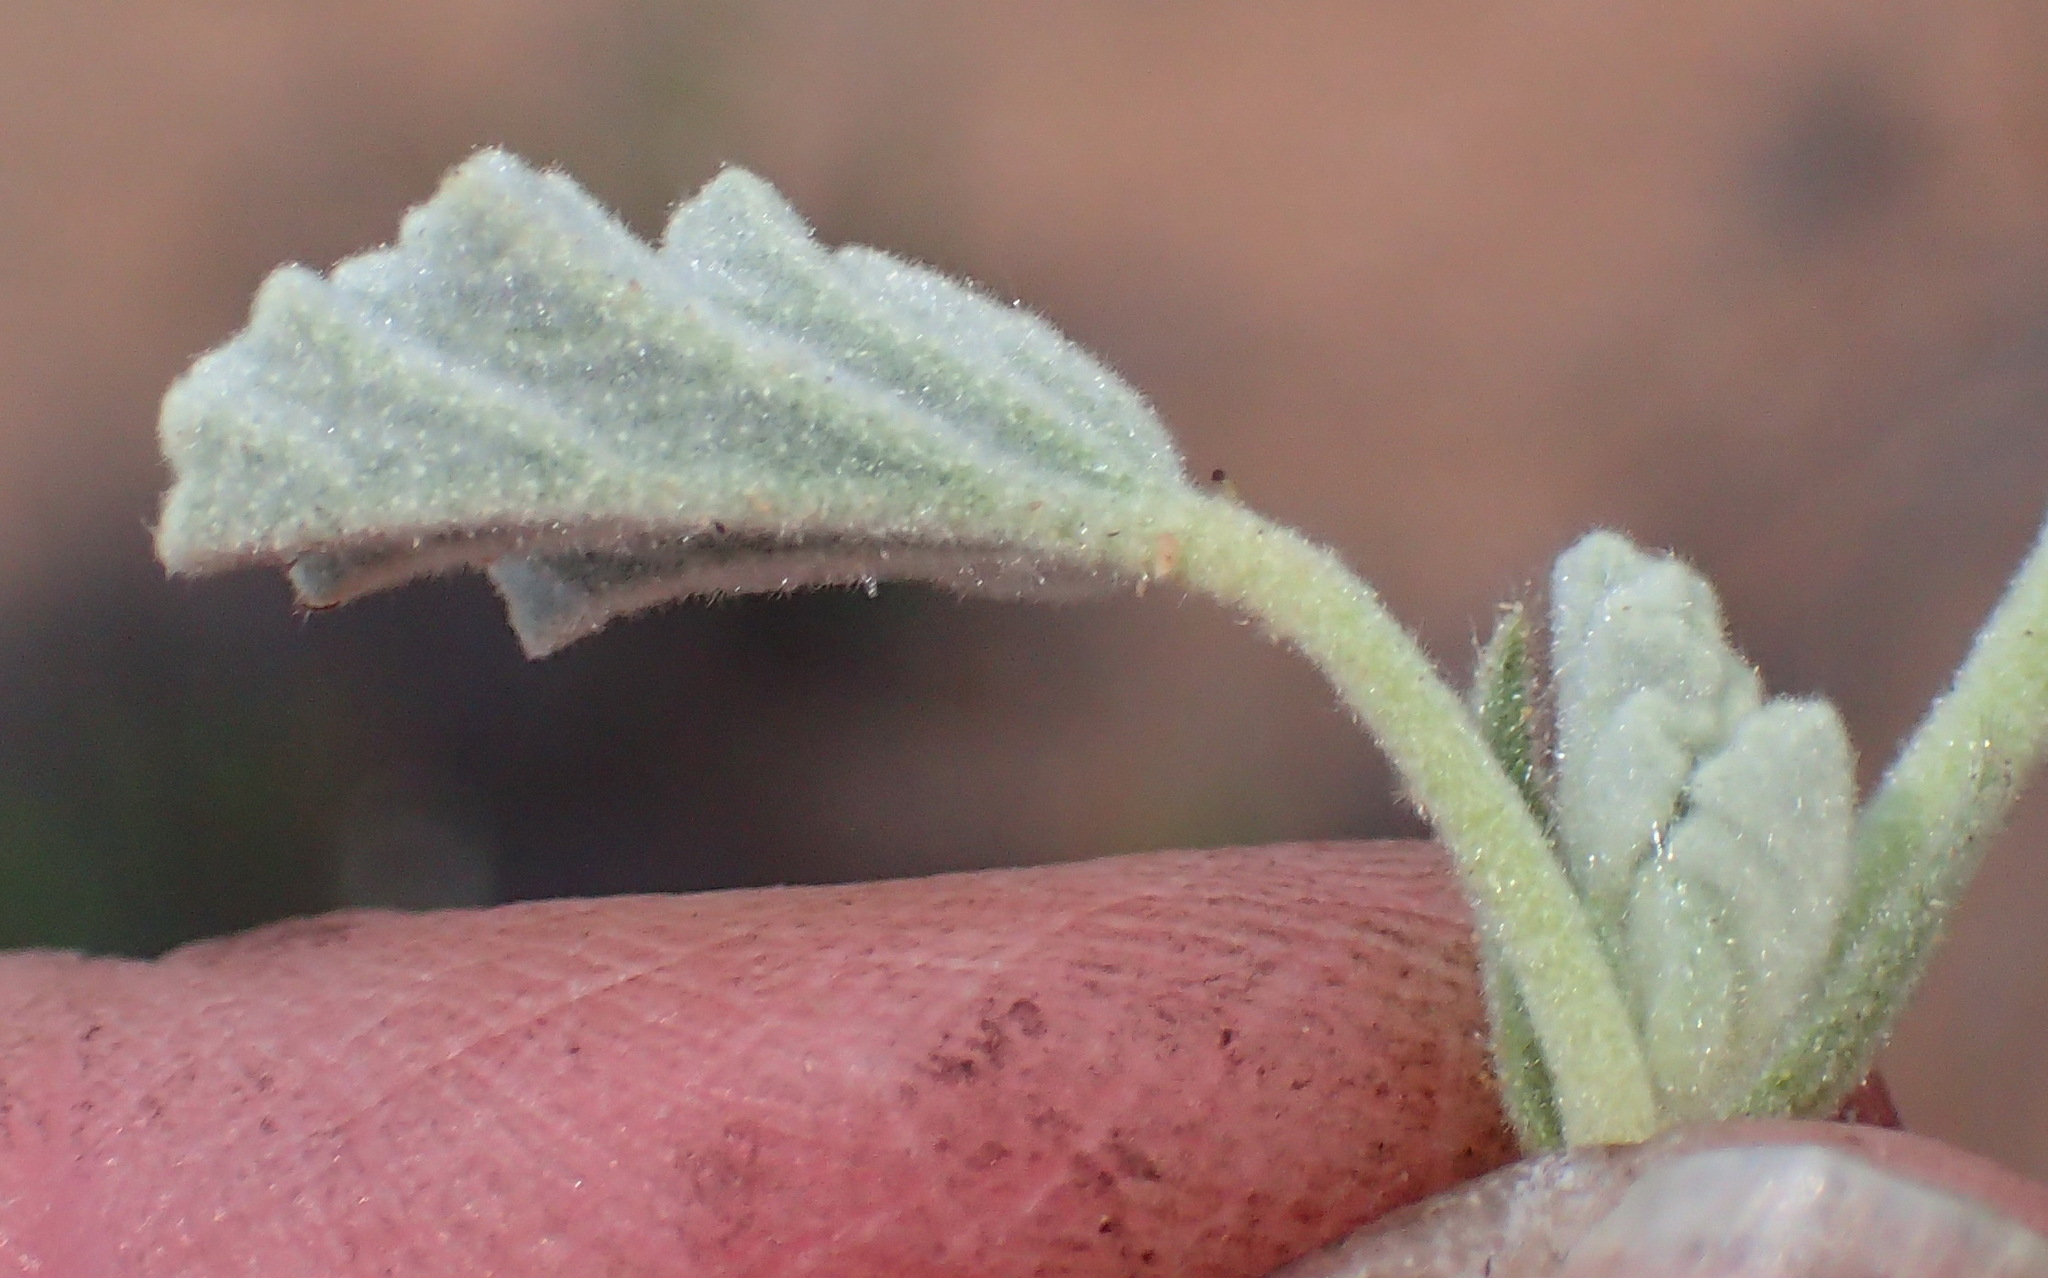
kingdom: Plantae
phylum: Tracheophyta
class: Magnoliopsida
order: Malvales
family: Malvaceae
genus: Hermannia
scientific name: Hermannia althaeifolia
